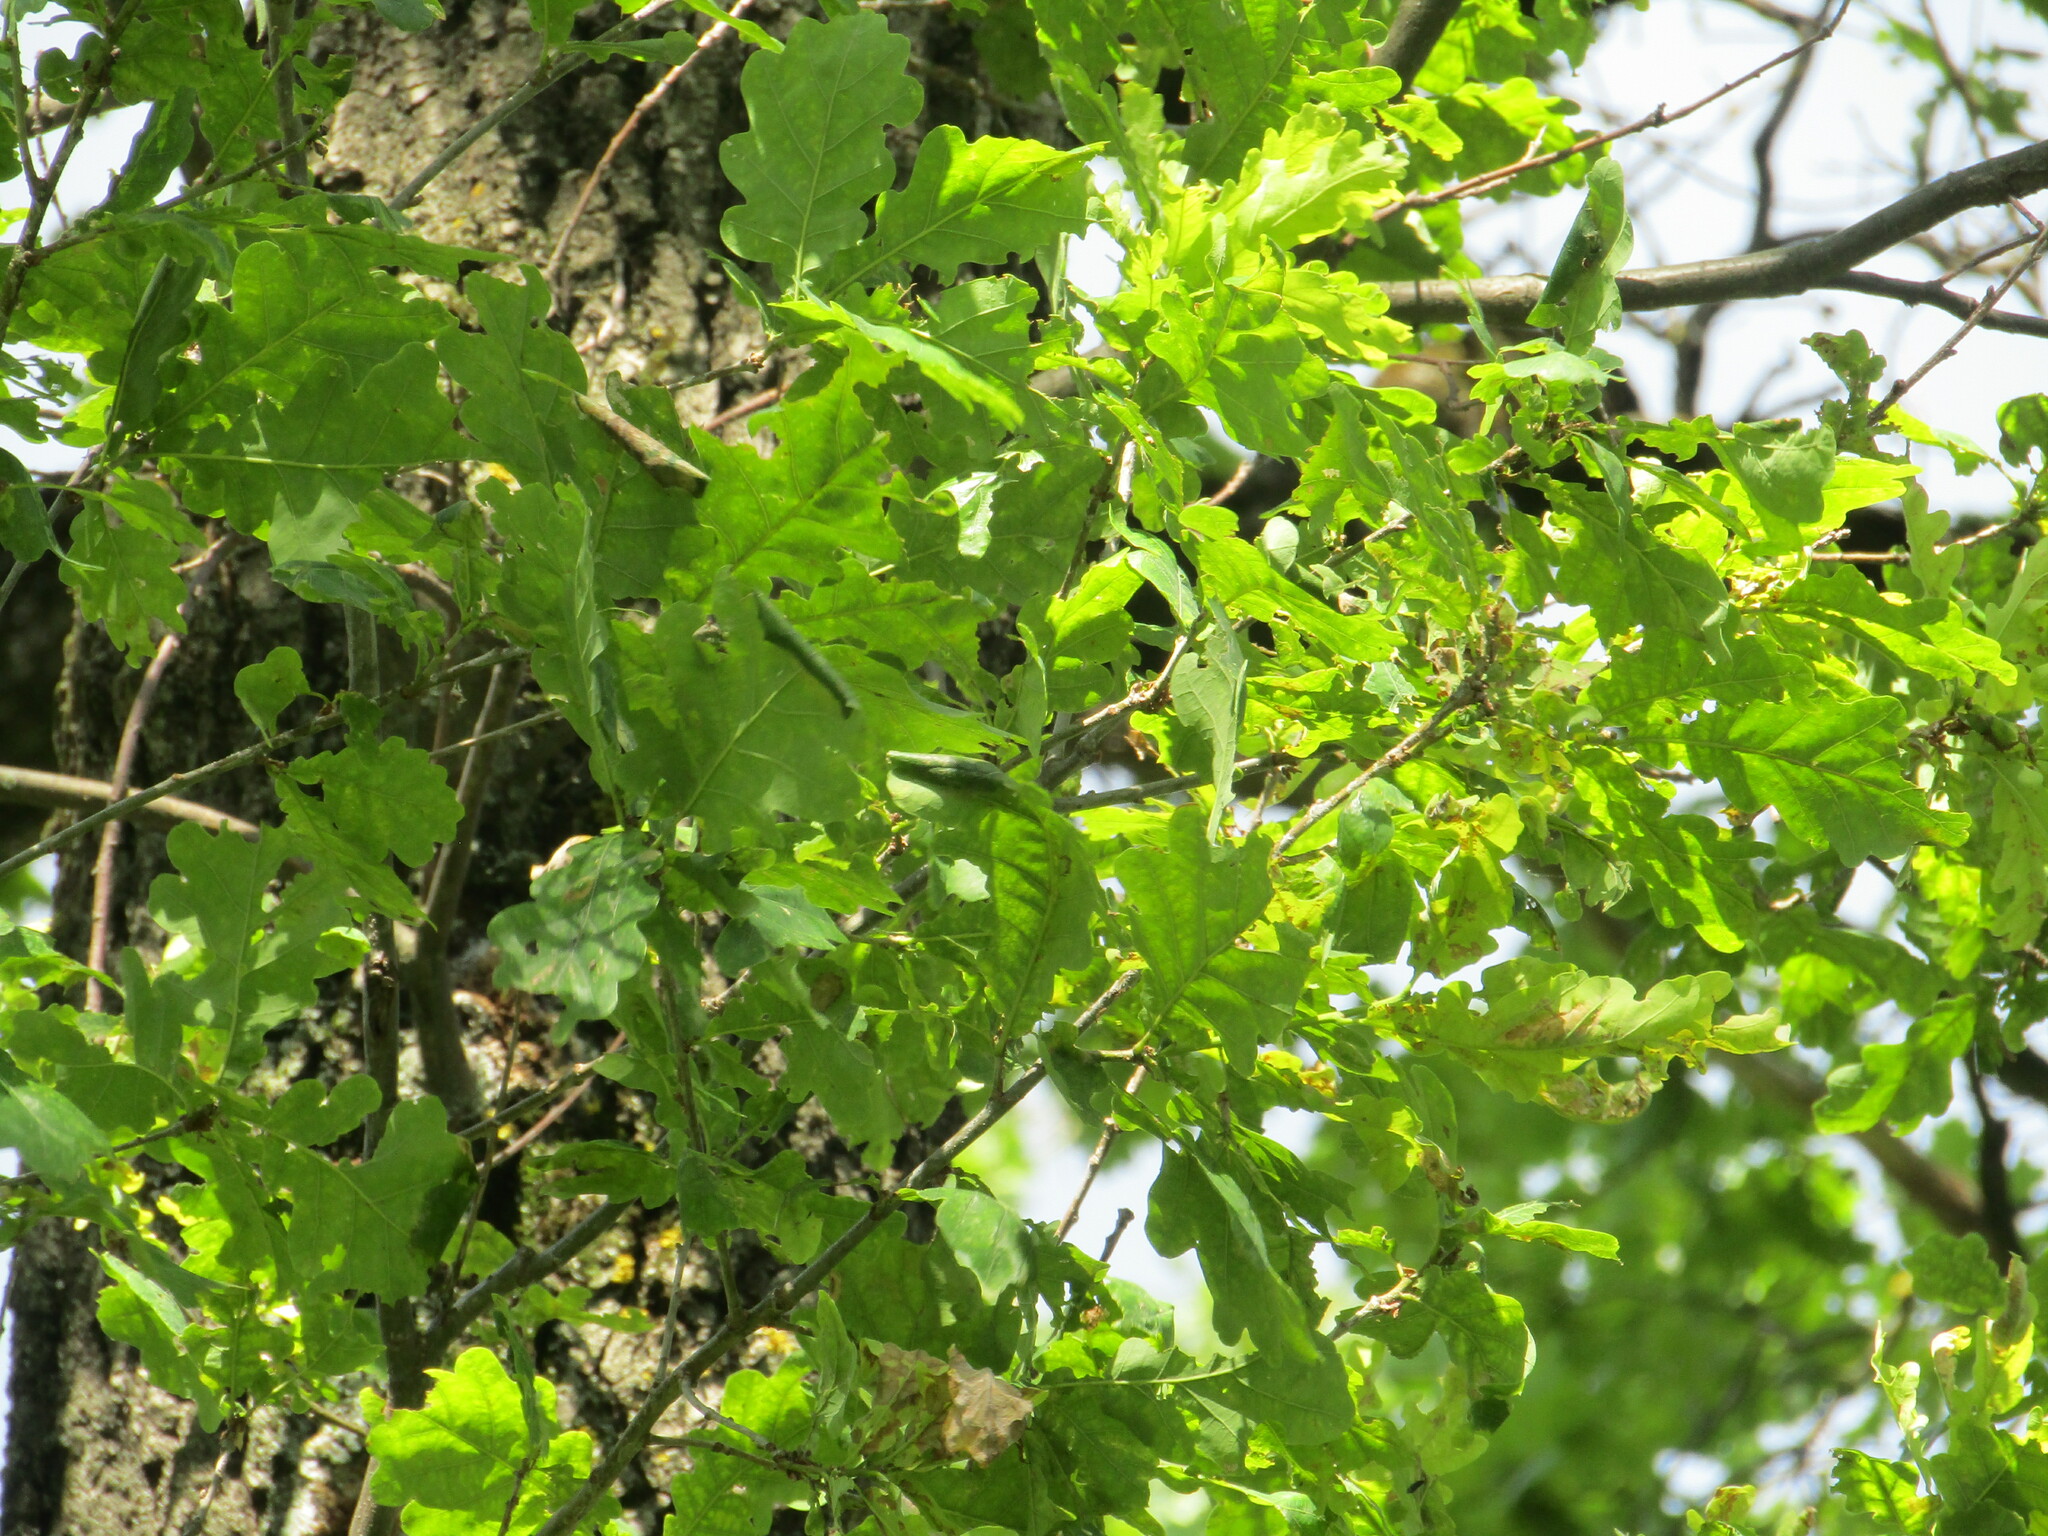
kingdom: Plantae
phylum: Tracheophyta
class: Magnoliopsida
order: Fagales
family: Fagaceae
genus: Quercus
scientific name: Quercus robur
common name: Pedunculate oak
